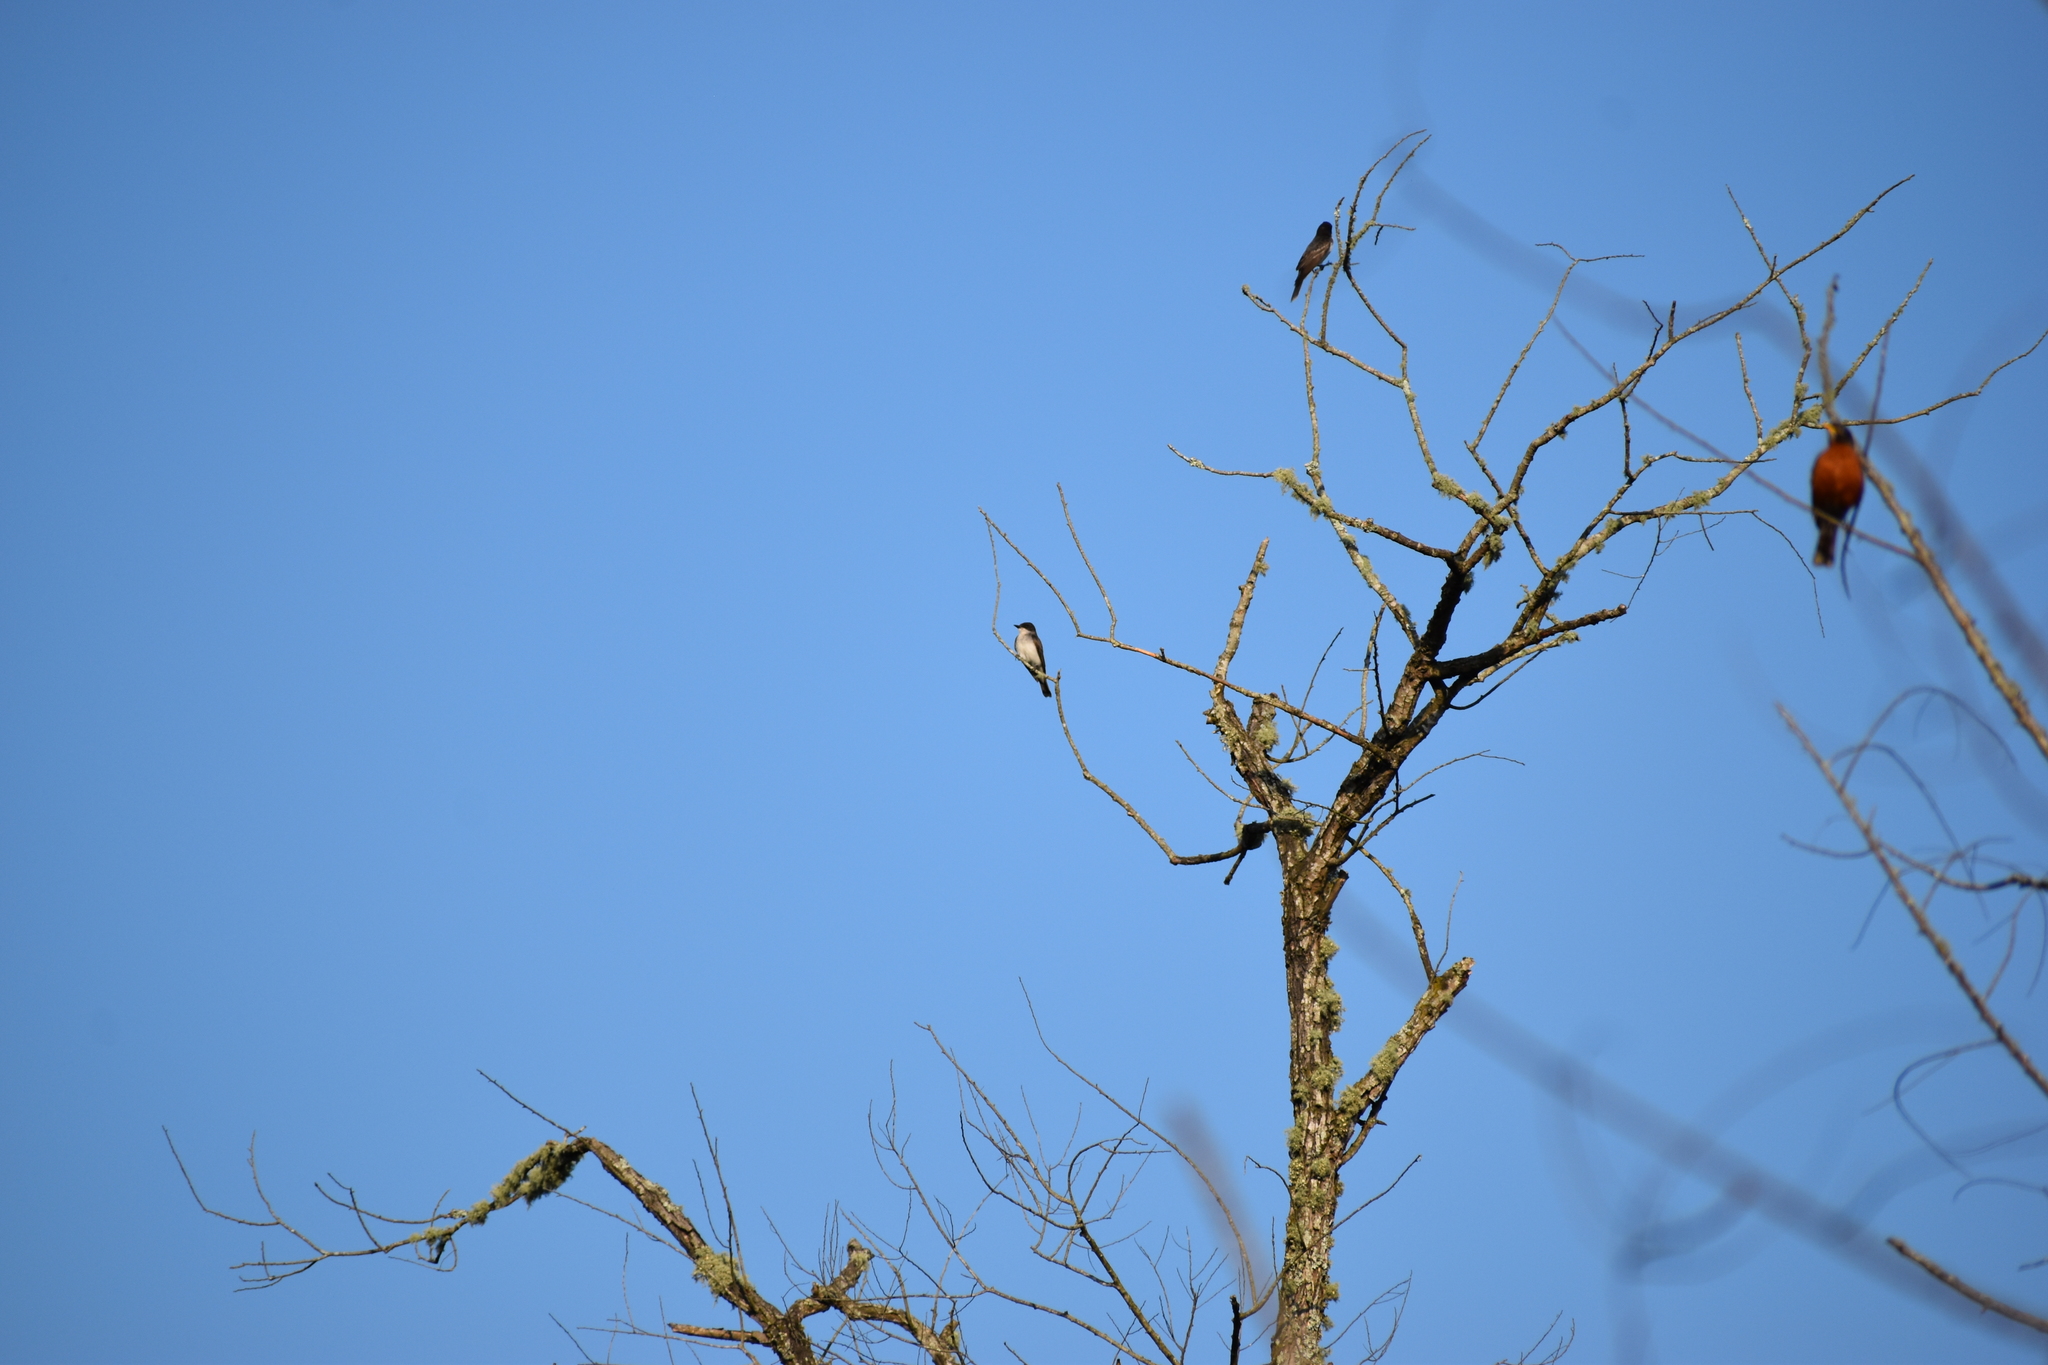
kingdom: Animalia
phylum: Chordata
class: Aves
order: Passeriformes
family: Tyrannidae
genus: Tyrannus
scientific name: Tyrannus tyrannus
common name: Eastern kingbird
